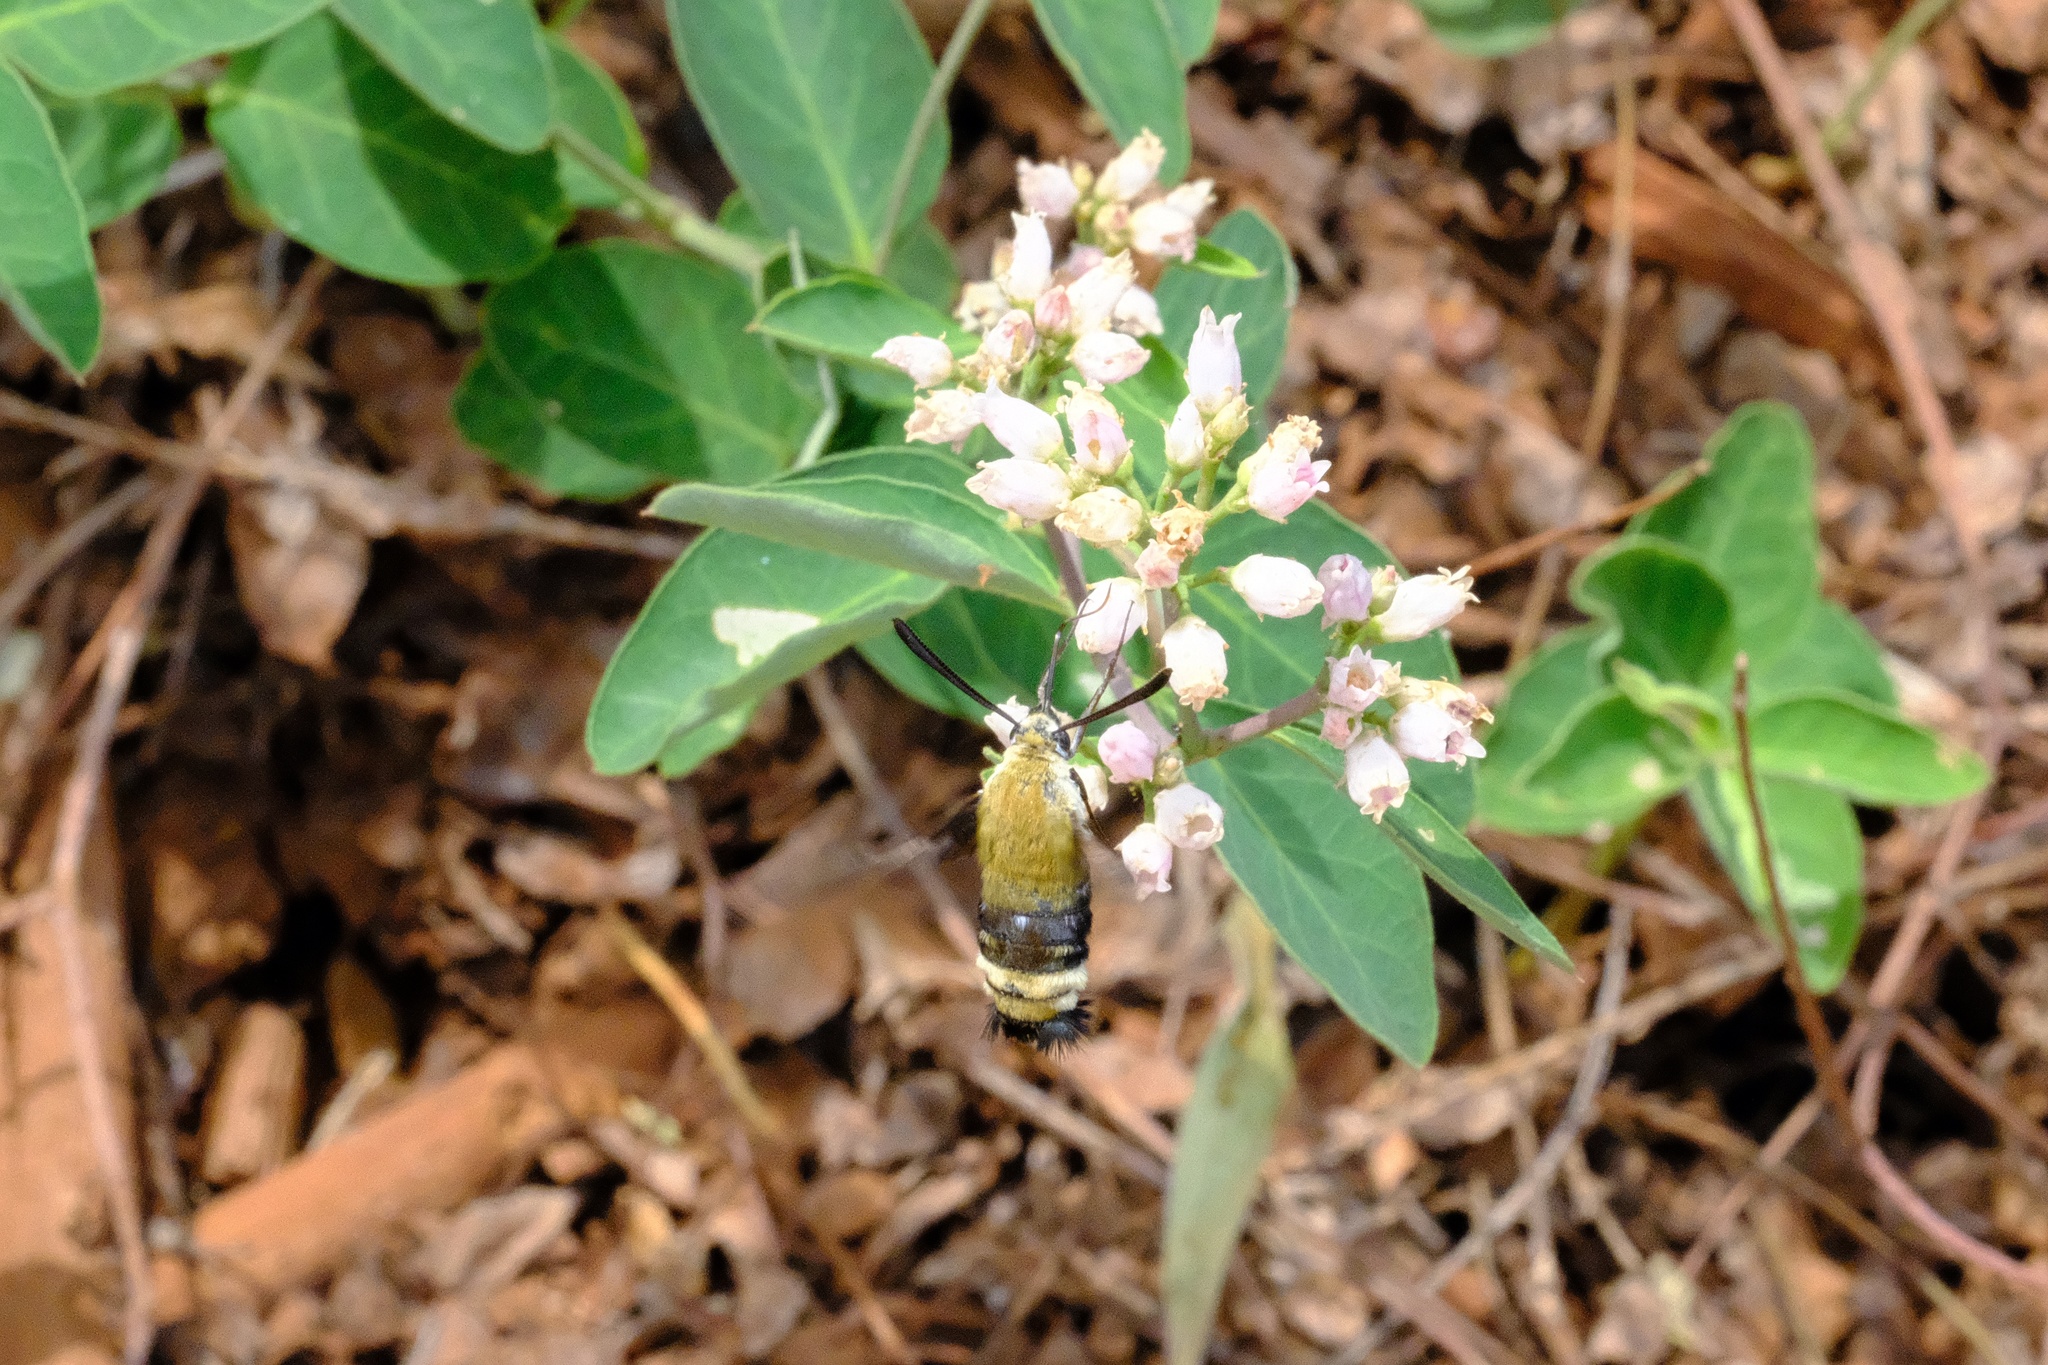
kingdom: Animalia
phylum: Arthropoda
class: Insecta
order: Lepidoptera
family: Sphingidae
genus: Hemaris
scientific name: Hemaris thetis
